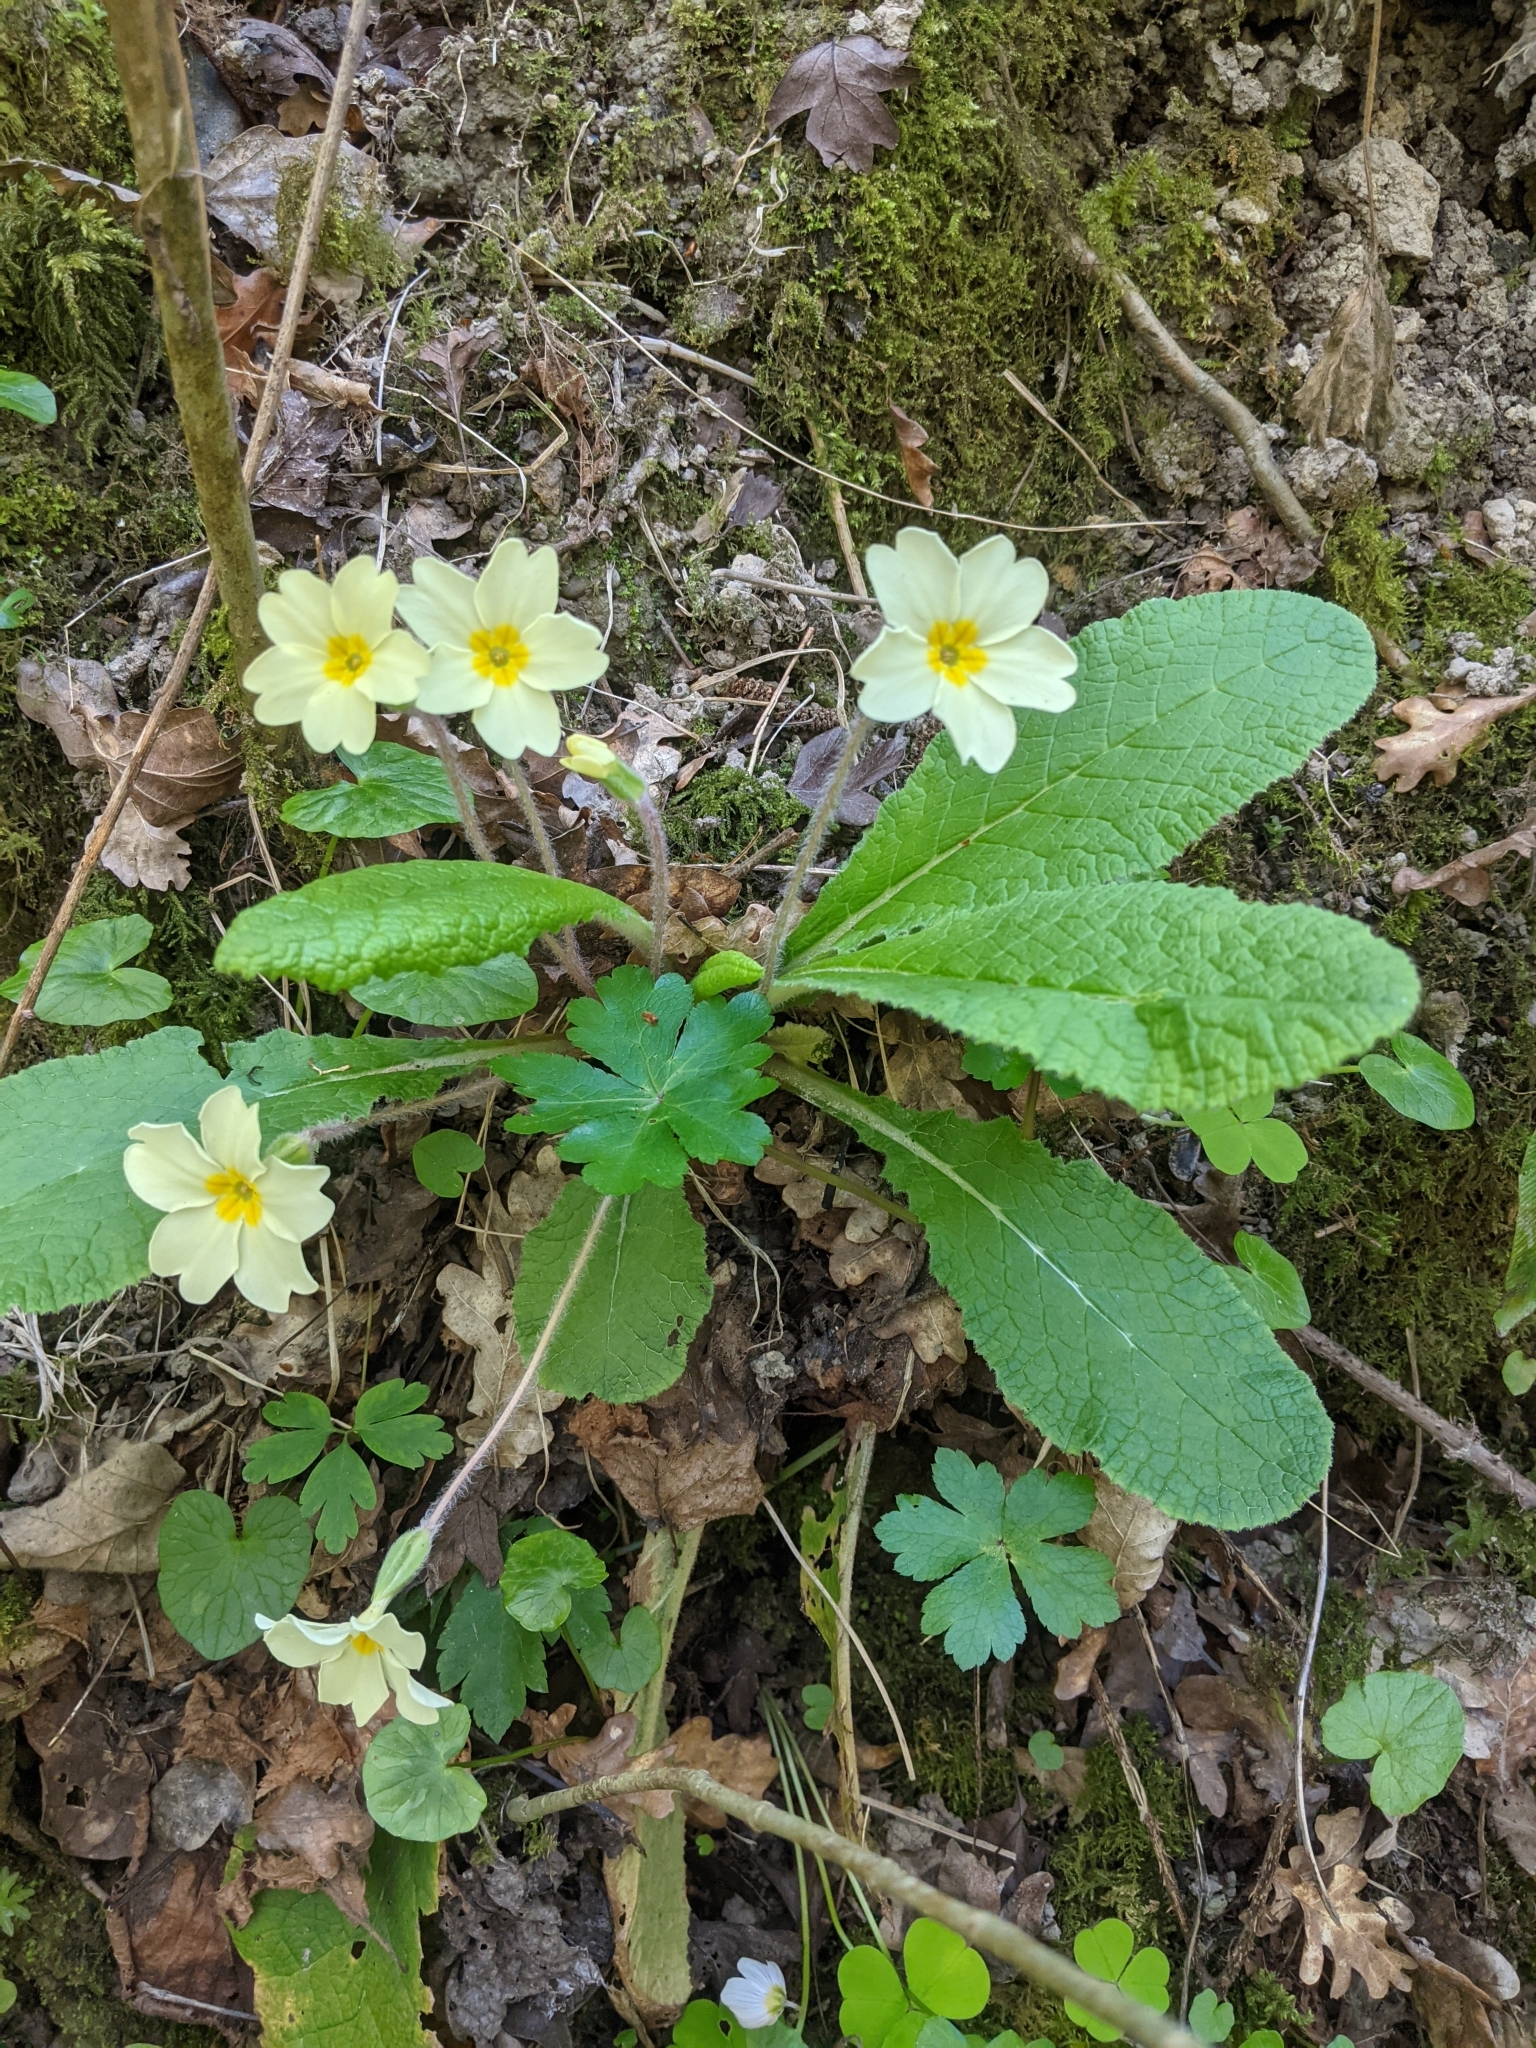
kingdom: Plantae
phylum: Tracheophyta
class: Magnoliopsida
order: Ericales
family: Primulaceae
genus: Primula
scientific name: Primula vulgaris
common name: Primrose
